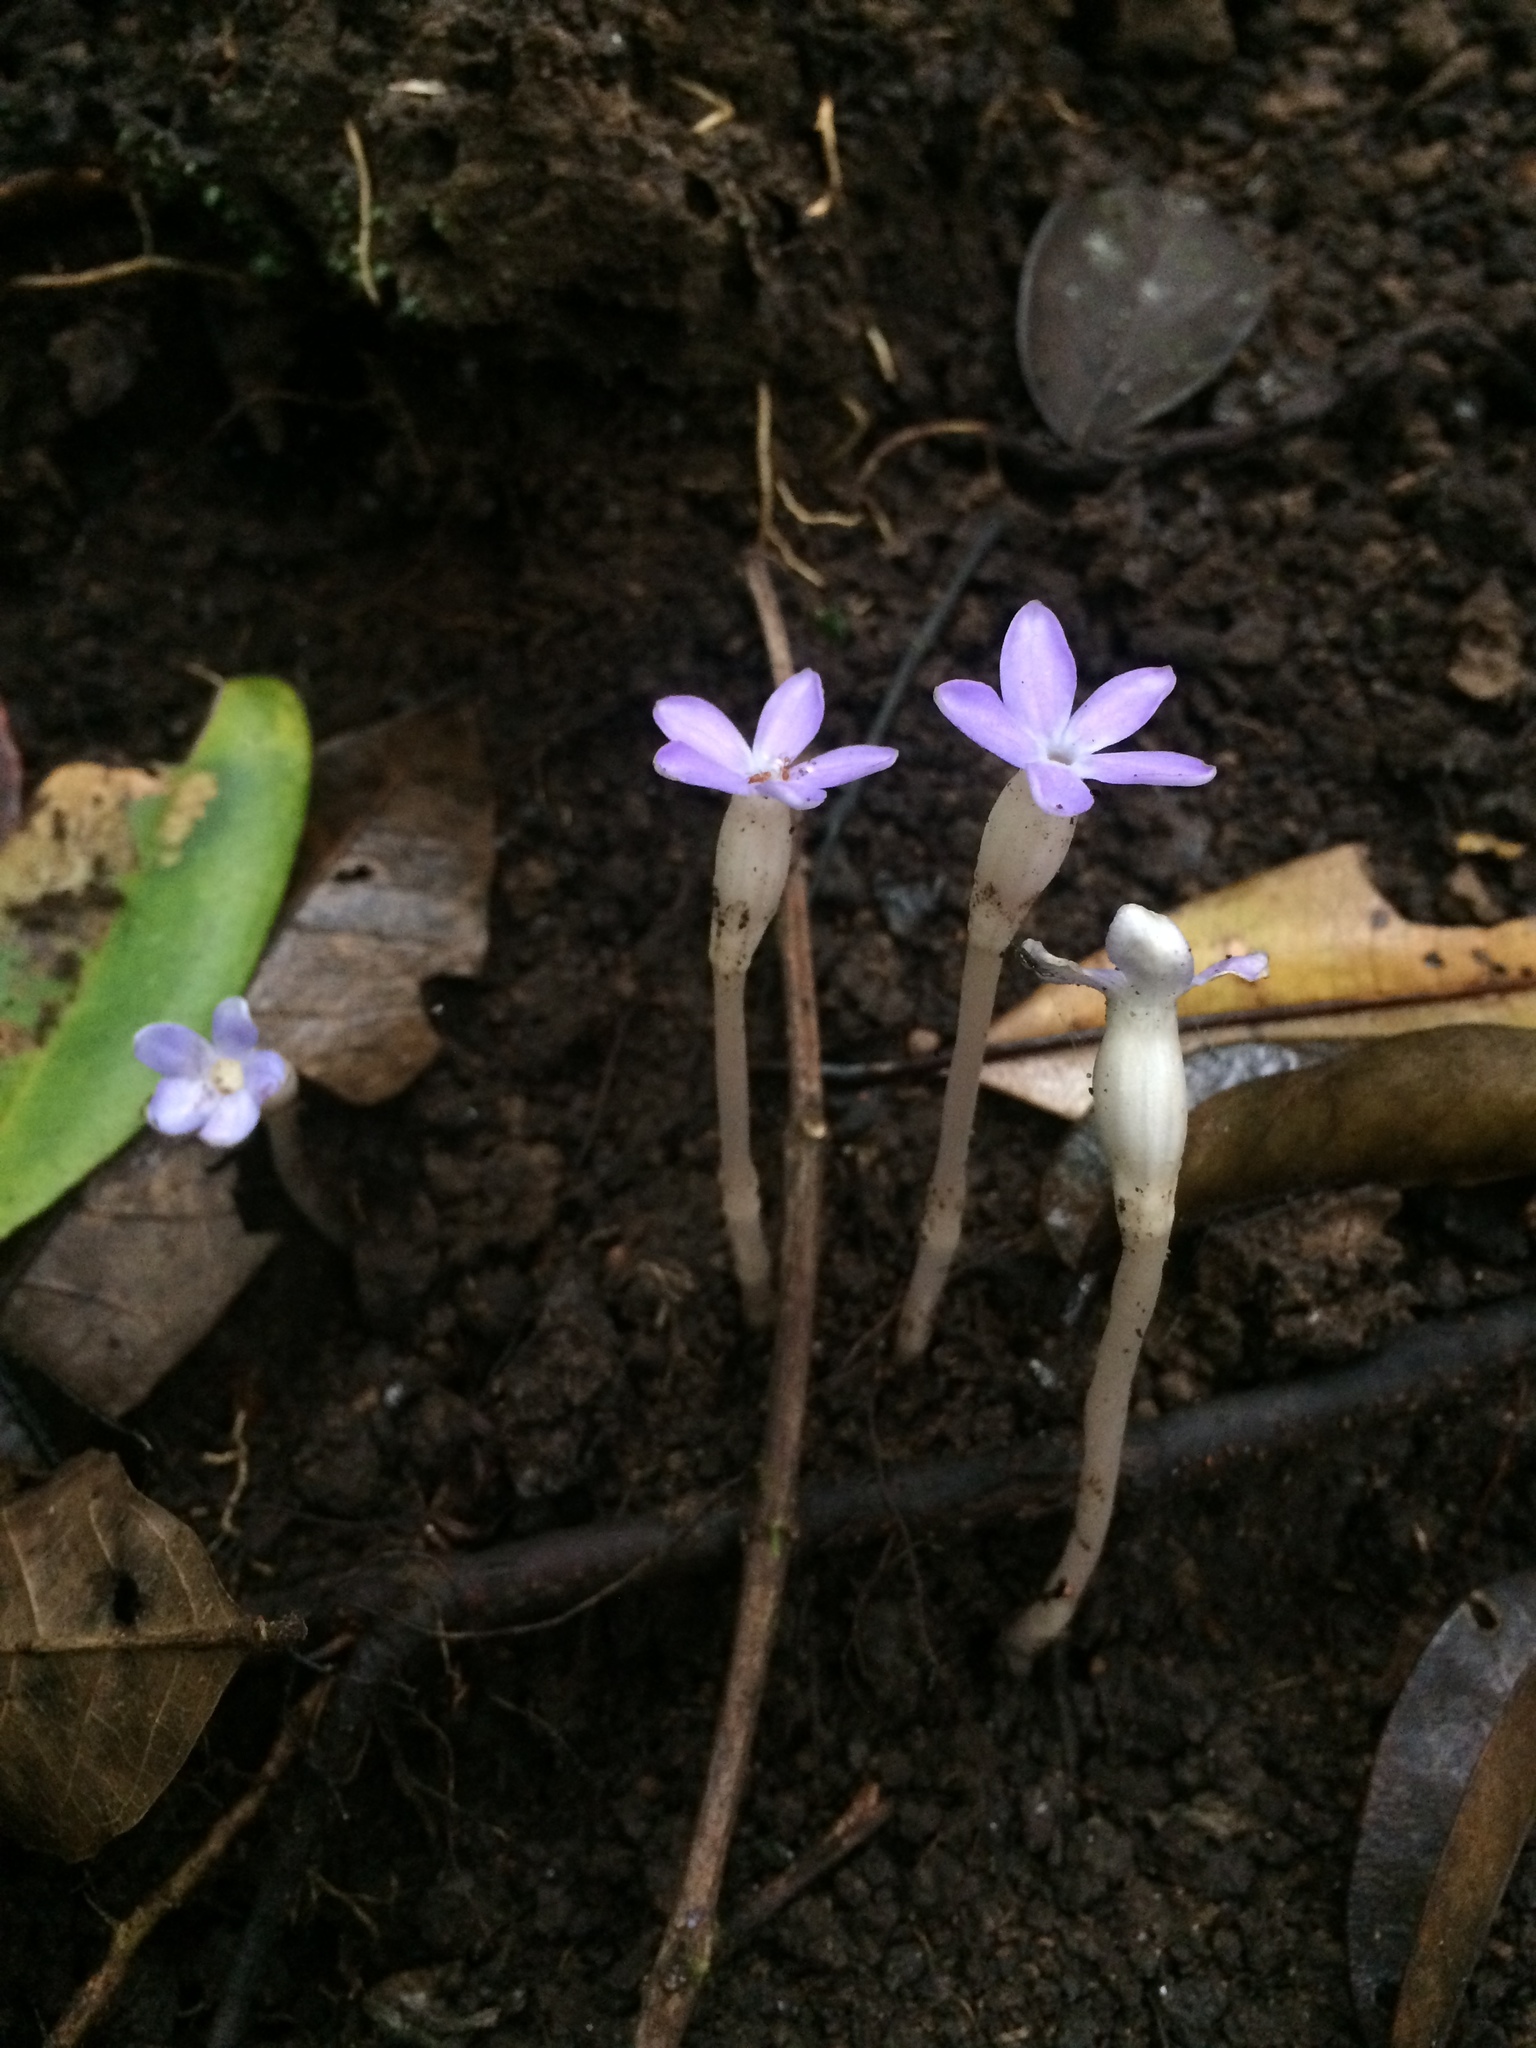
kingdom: Plantae
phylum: Tracheophyta
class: Magnoliopsida
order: Gentianales
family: Gentianaceae
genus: Voyria
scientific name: Voyria obconica
